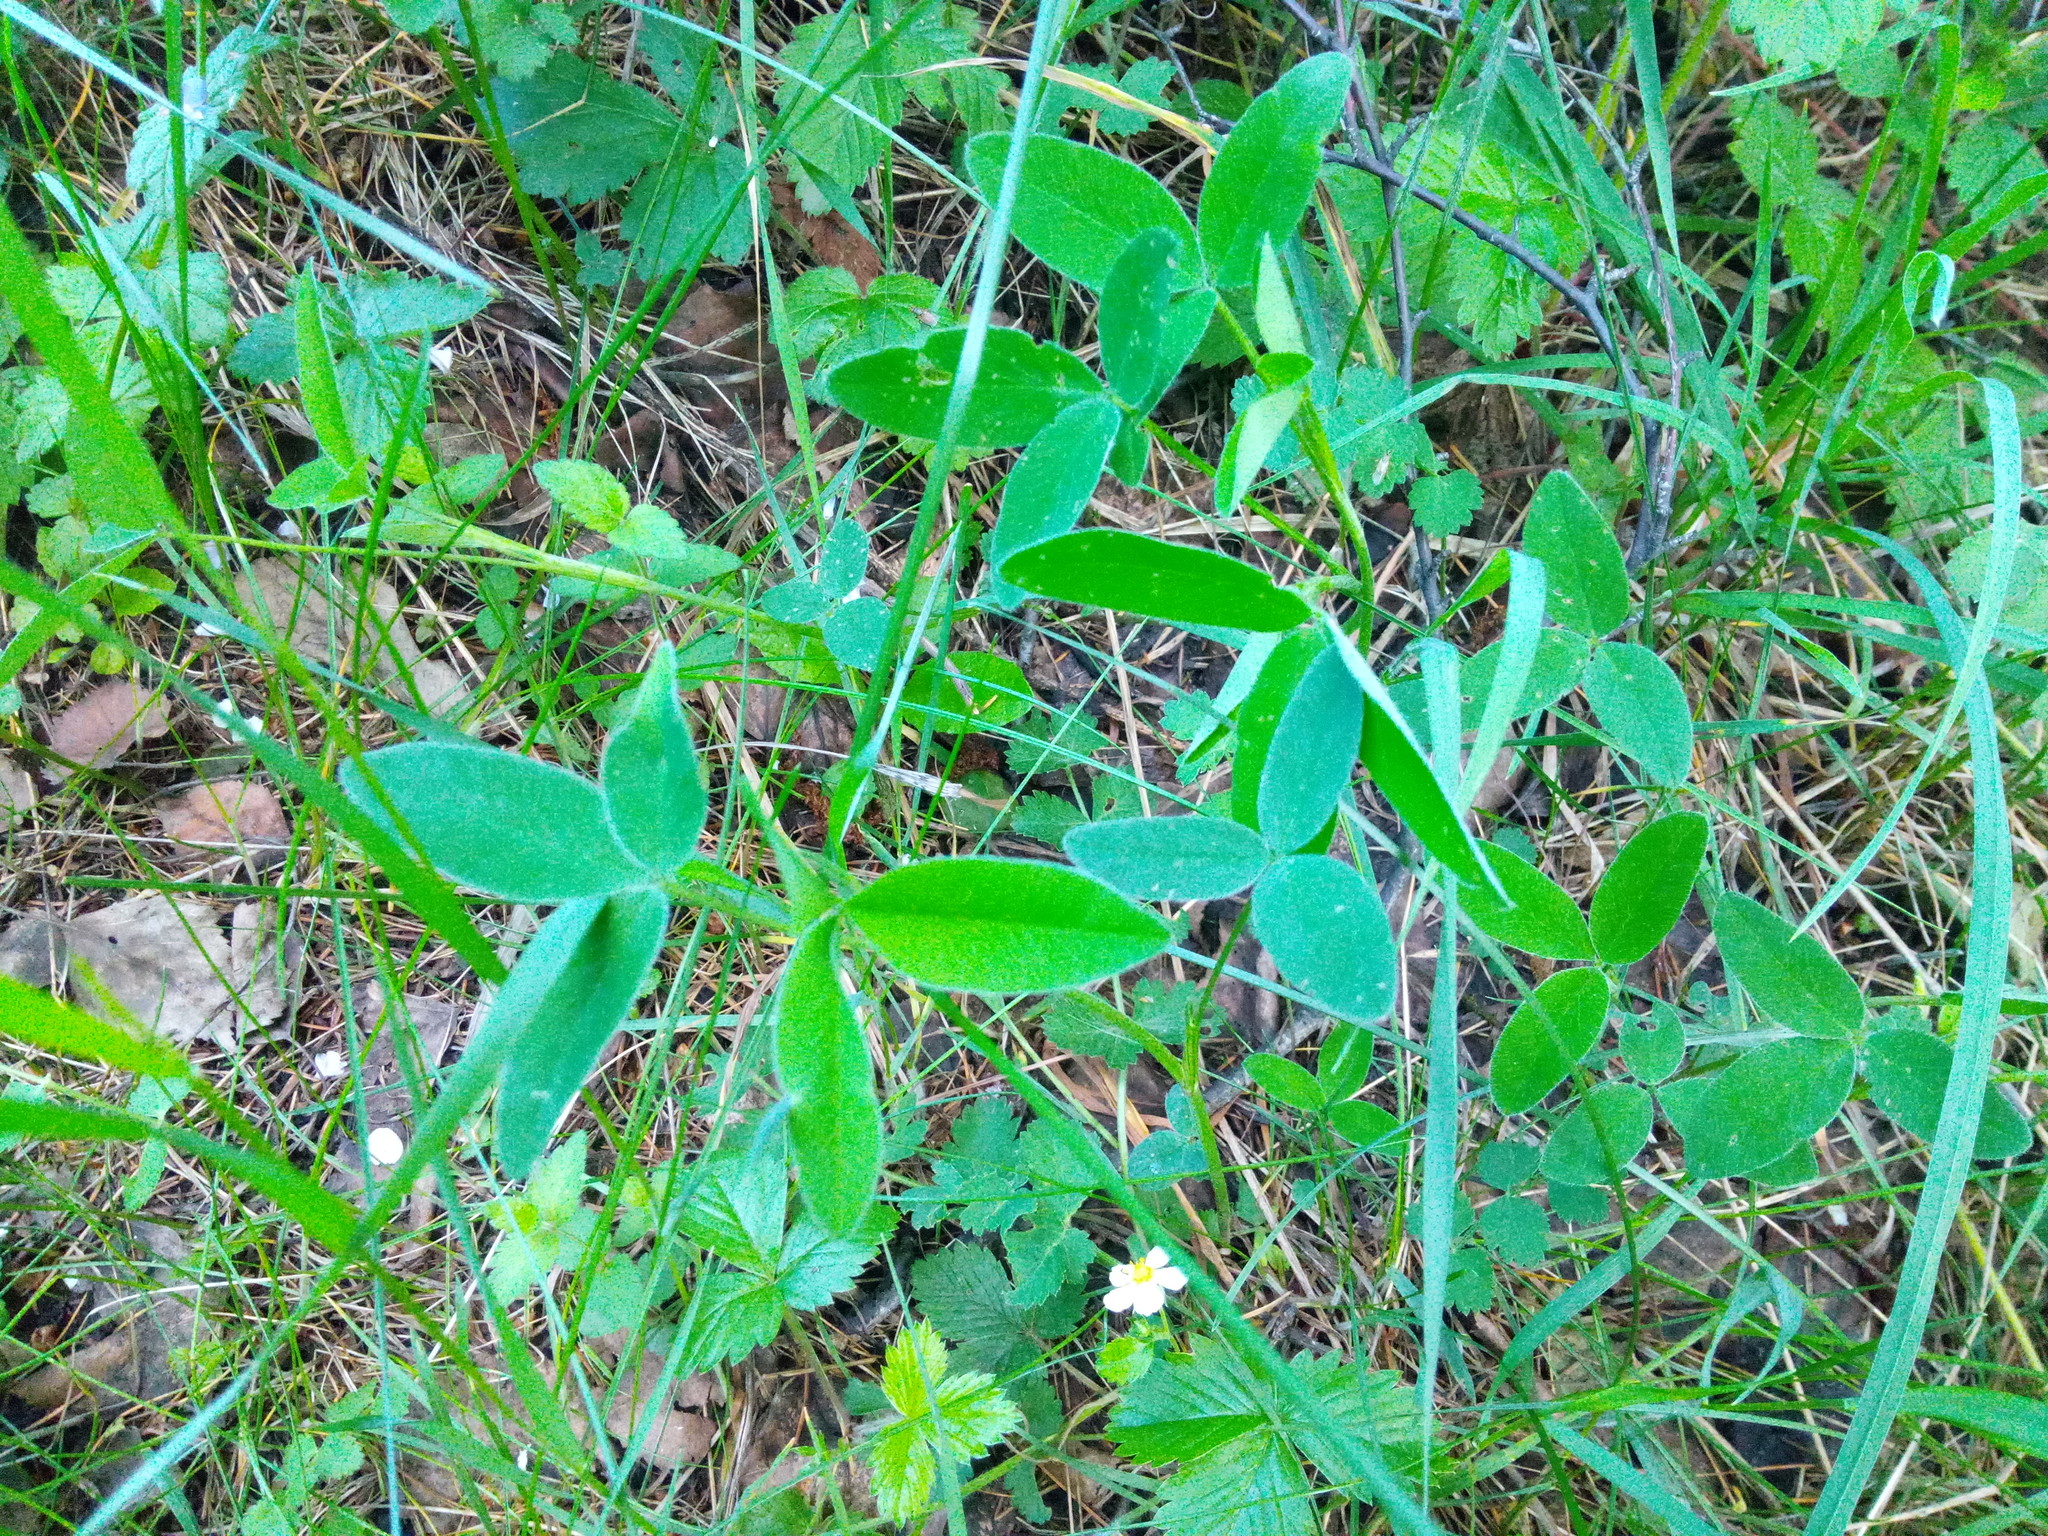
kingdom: Plantae
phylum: Tracheophyta
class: Magnoliopsida
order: Fabales
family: Fabaceae
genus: Trifolium
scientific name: Trifolium medium
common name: Zigzag clover
